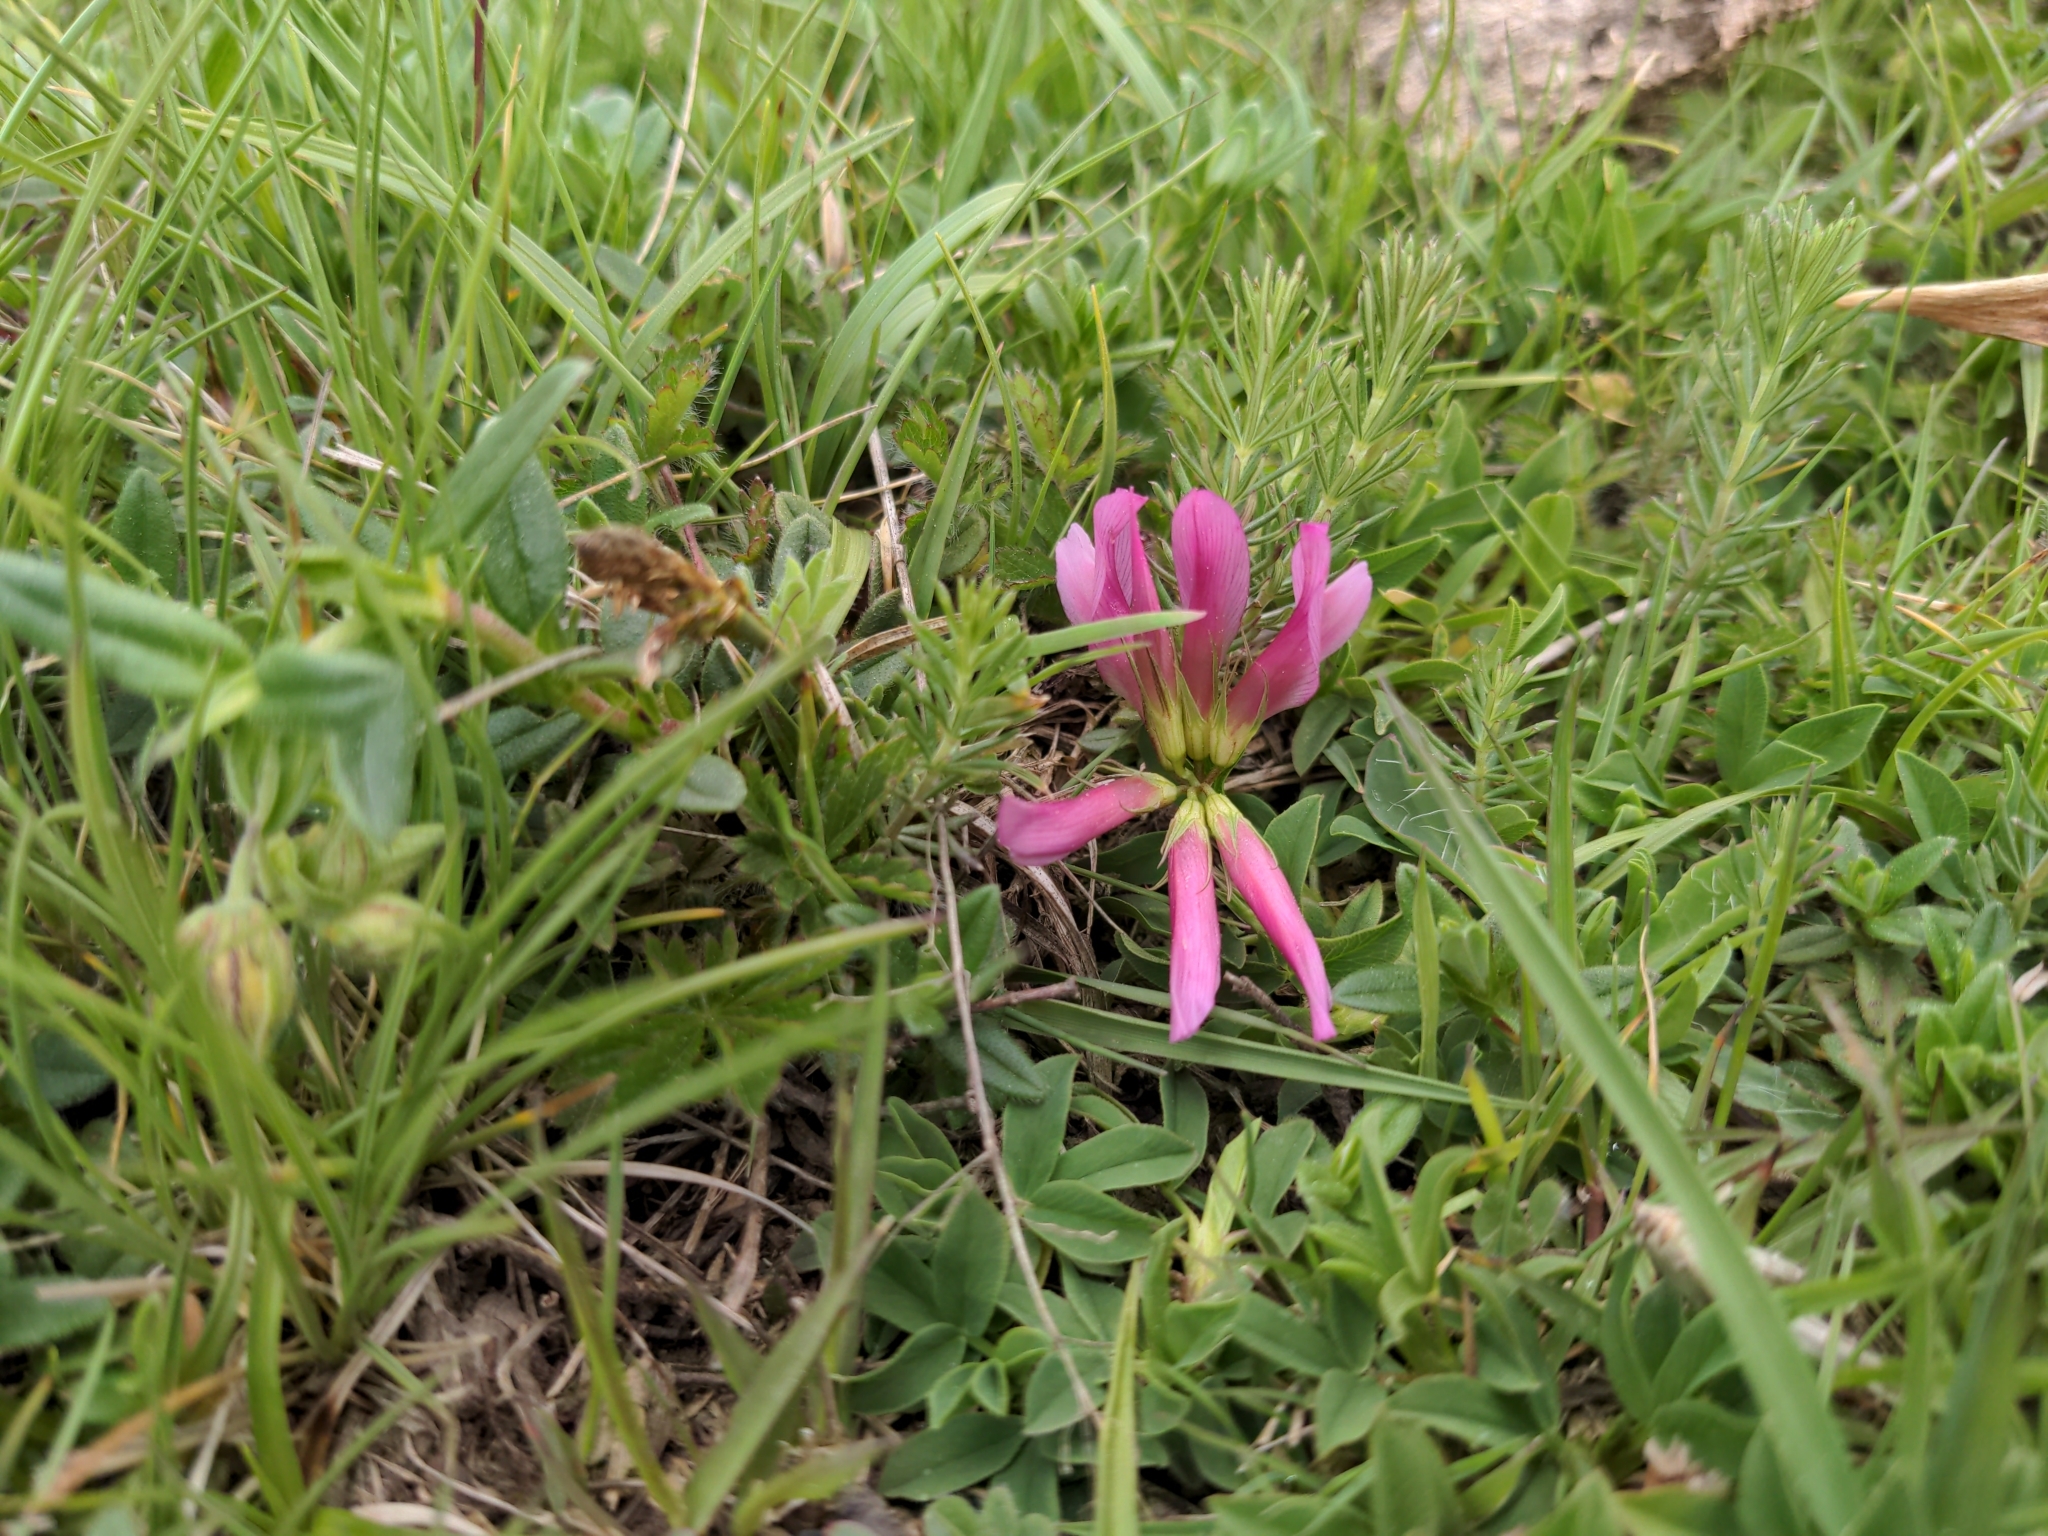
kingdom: Plantae
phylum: Tracheophyta
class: Magnoliopsida
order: Fabales
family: Fabaceae
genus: Trifolium
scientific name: Trifolium alpinum
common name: Alpine clover
